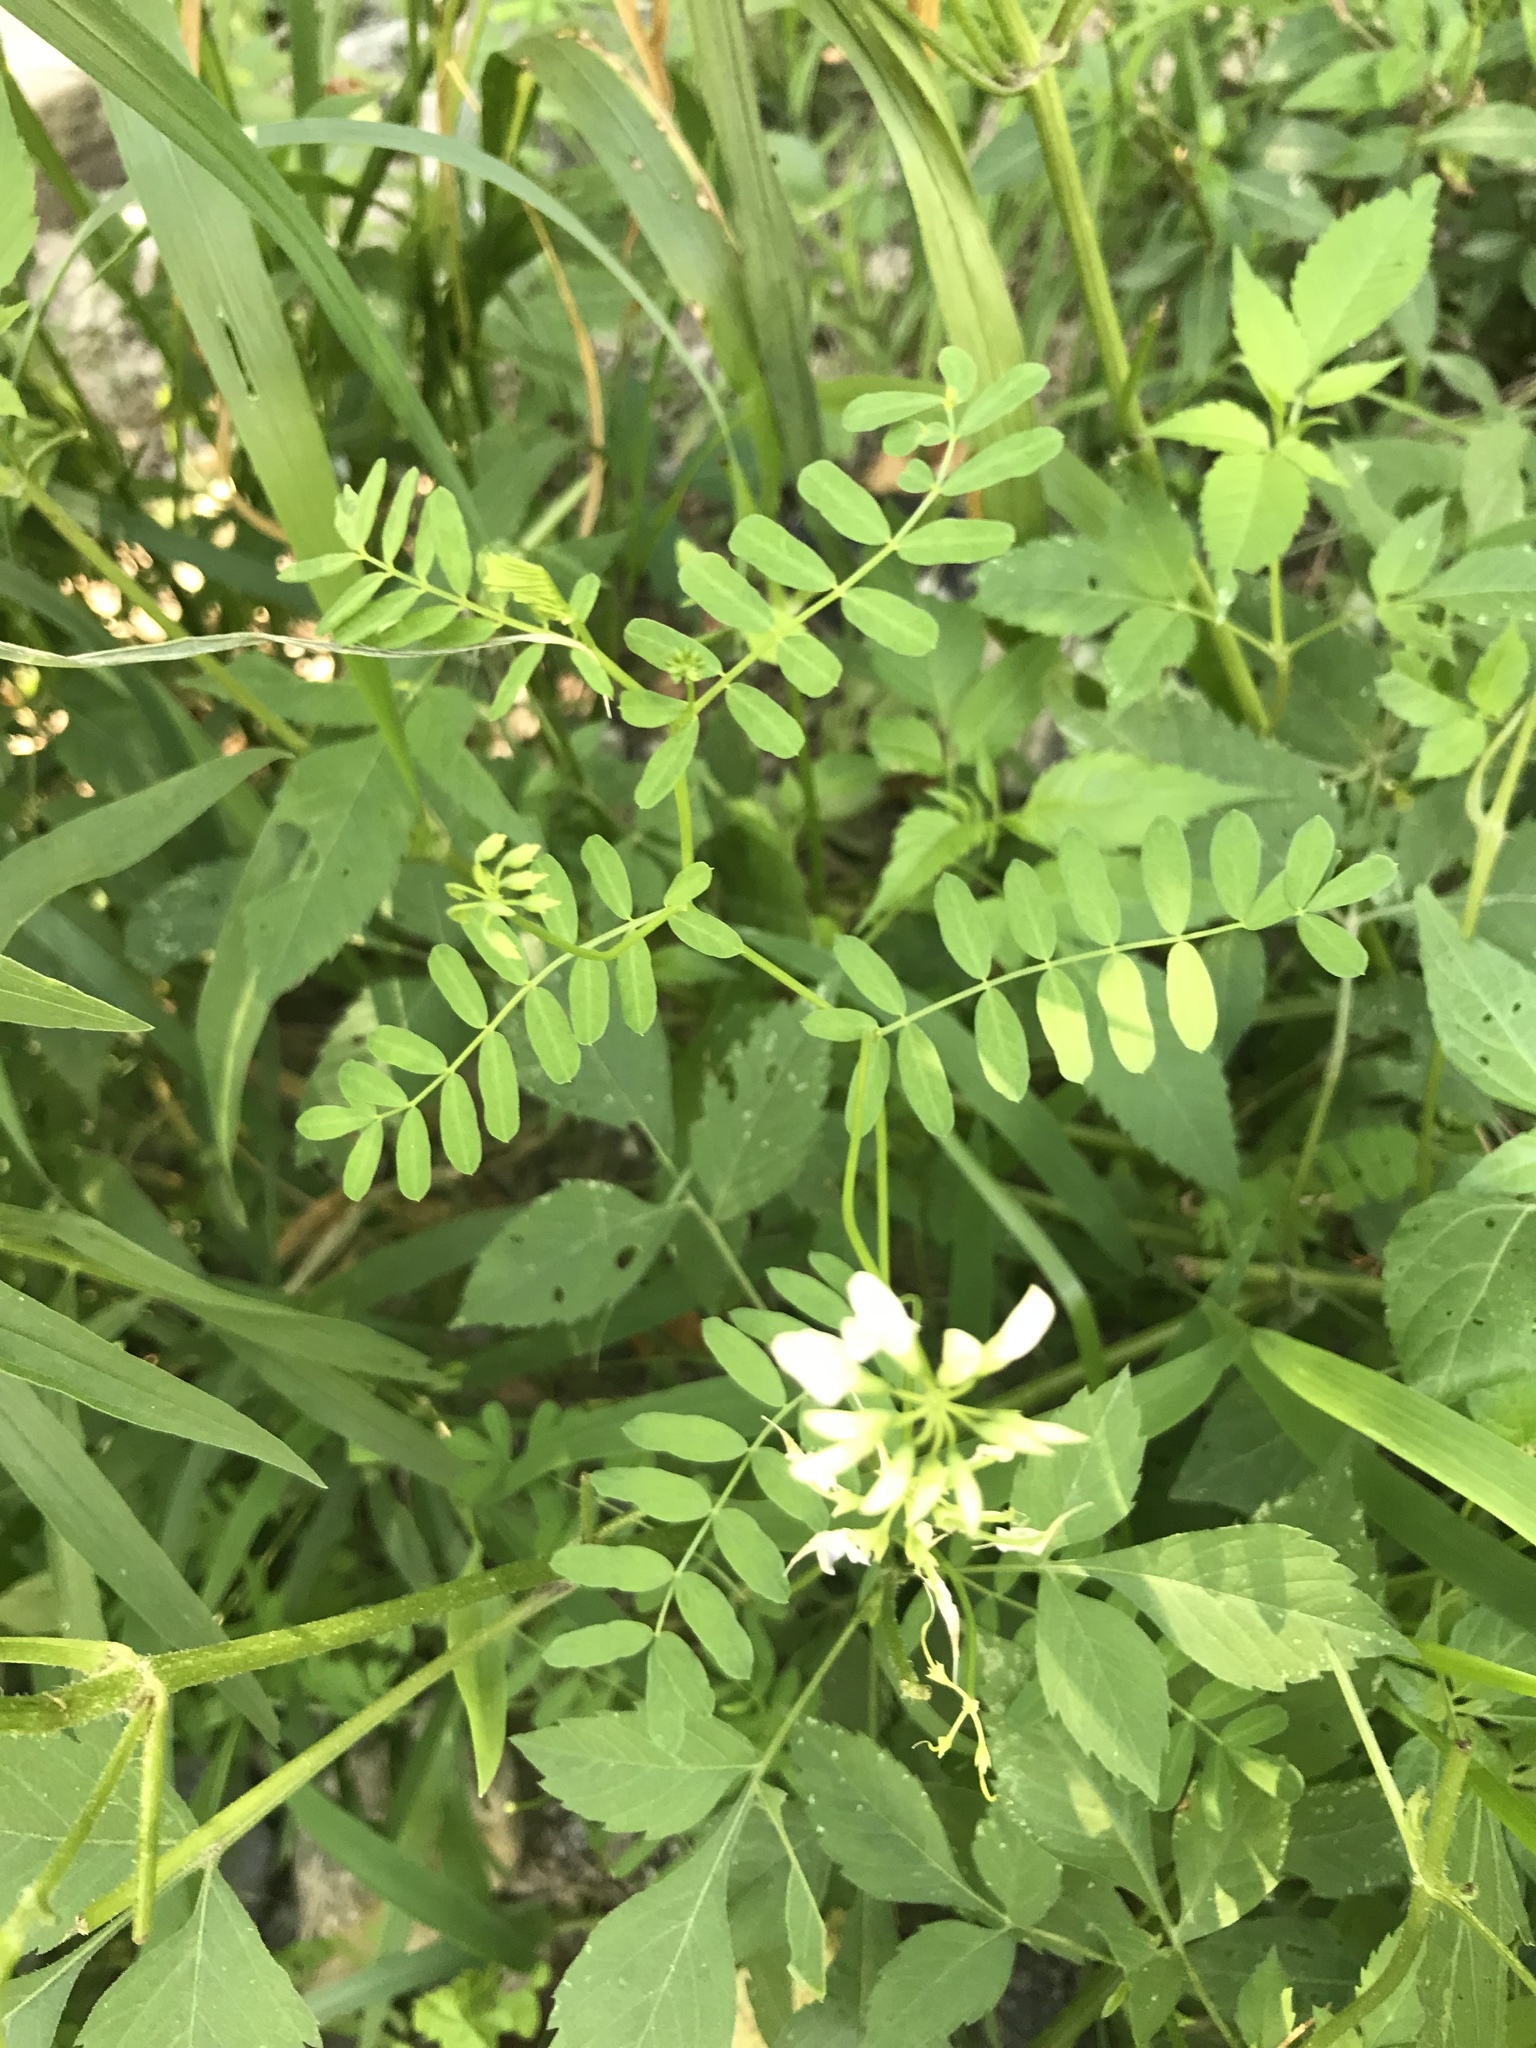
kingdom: Plantae
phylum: Tracheophyta
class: Magnoliopsida
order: Fabales
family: Fabaceae
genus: Coronilla
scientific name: Coronilla varia
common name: Crownvetch
